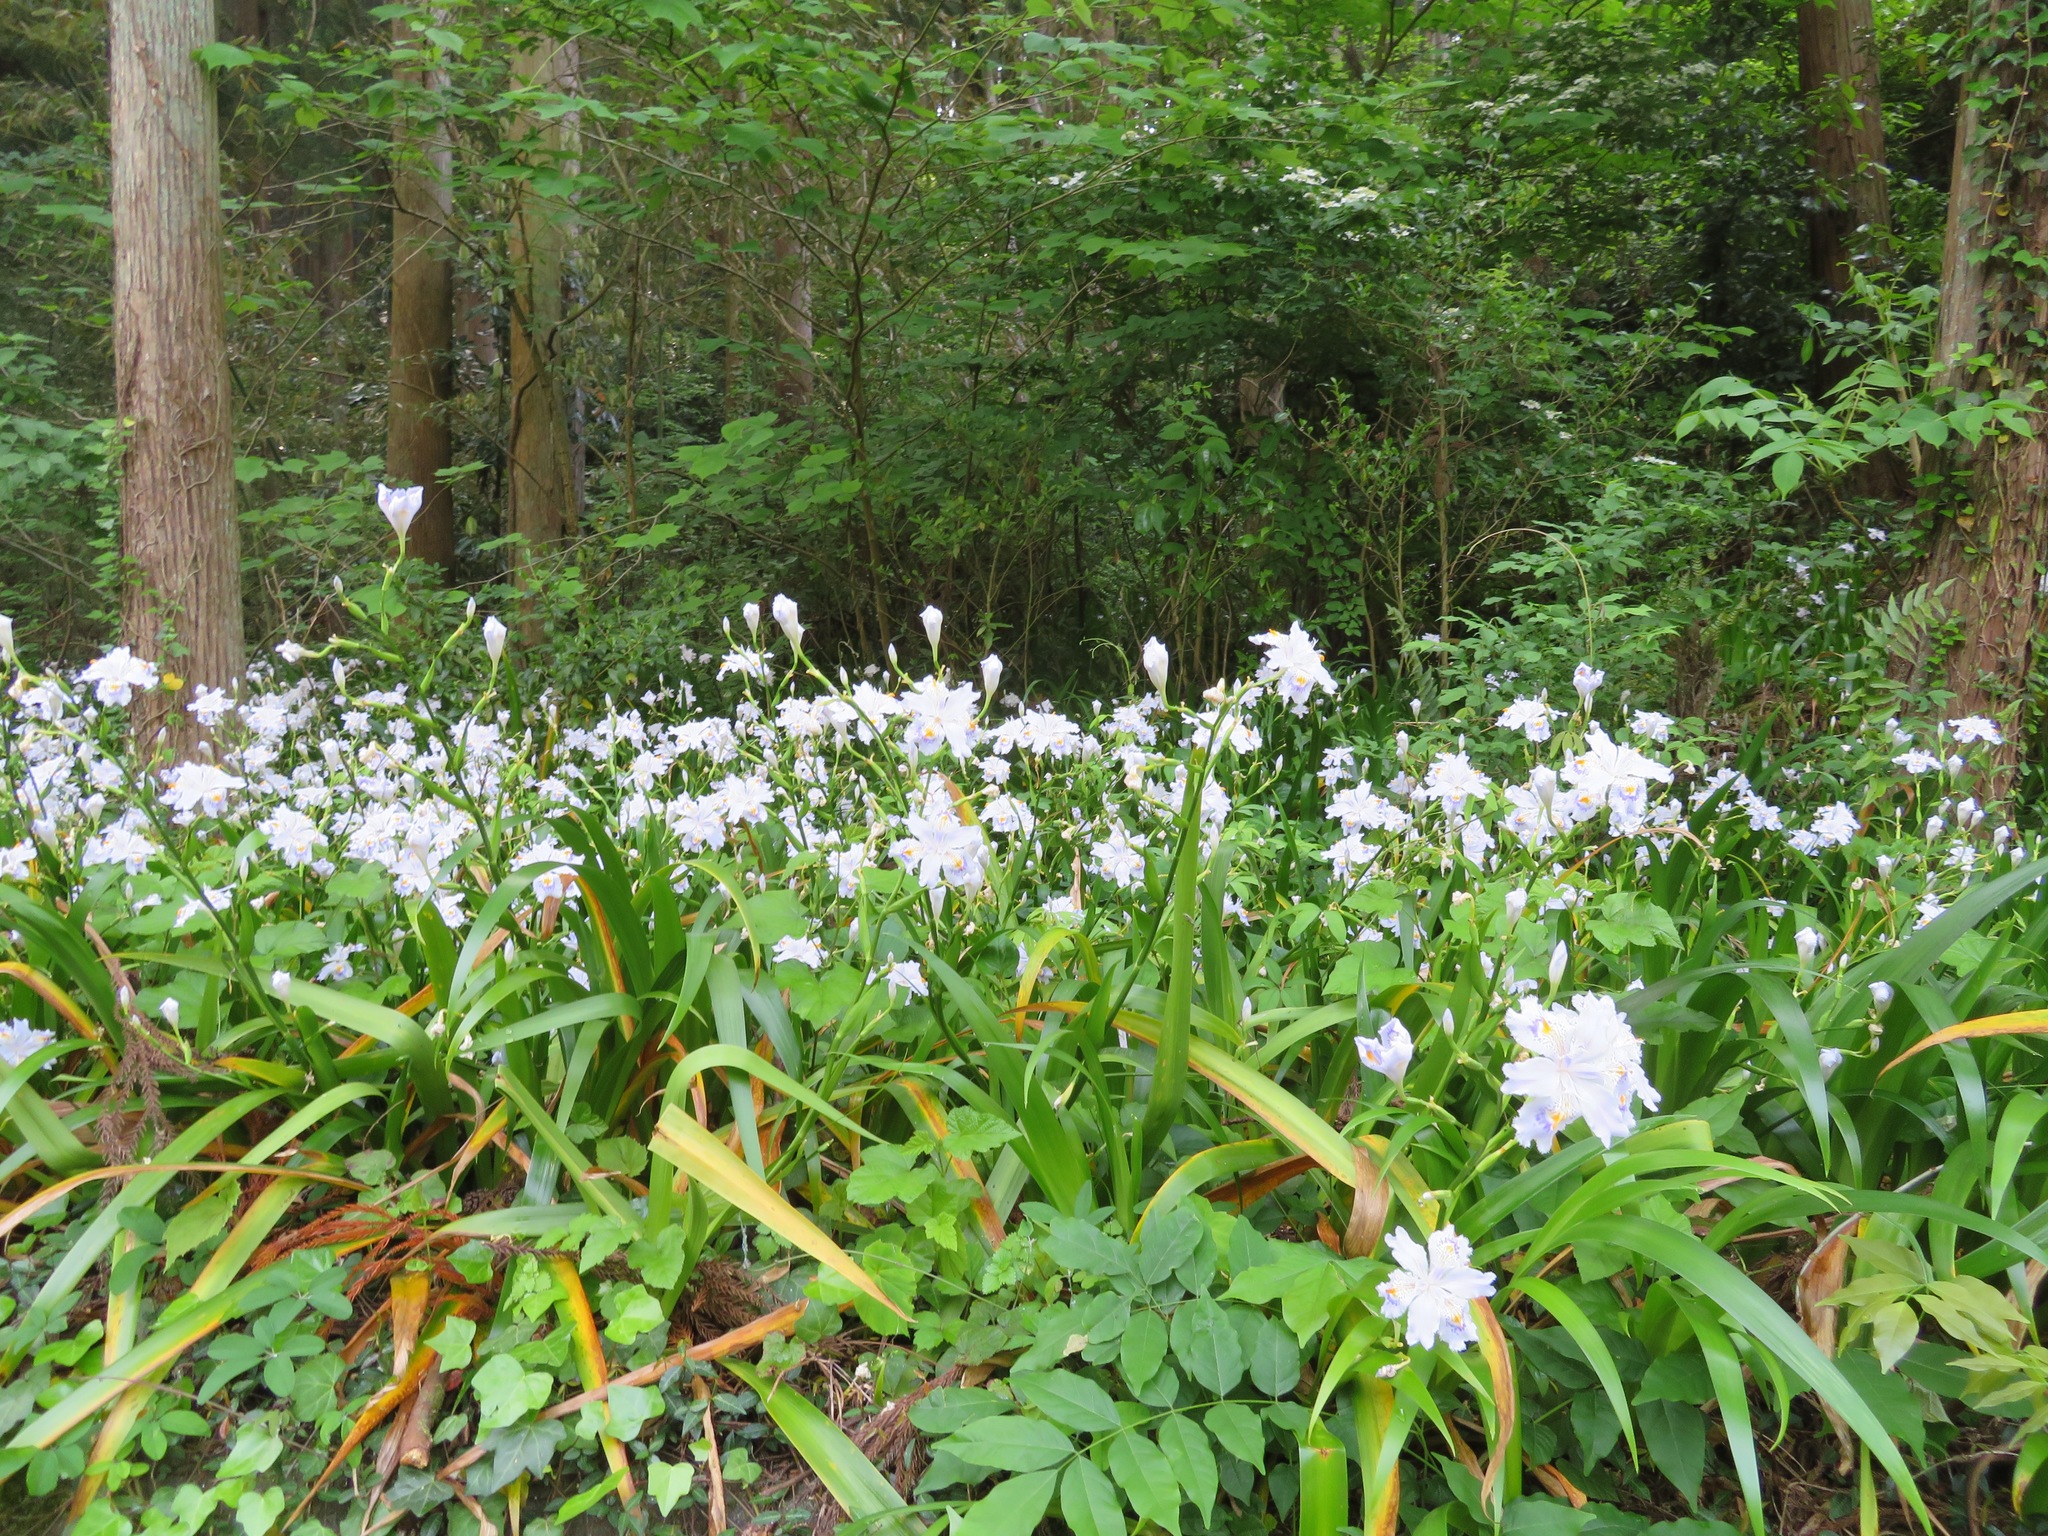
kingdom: Plantae
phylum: Tracheophyta
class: Liliopsida
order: Asparagales
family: Iridaceae
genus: Iris
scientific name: Iris japonica
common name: Butterfly-flower
